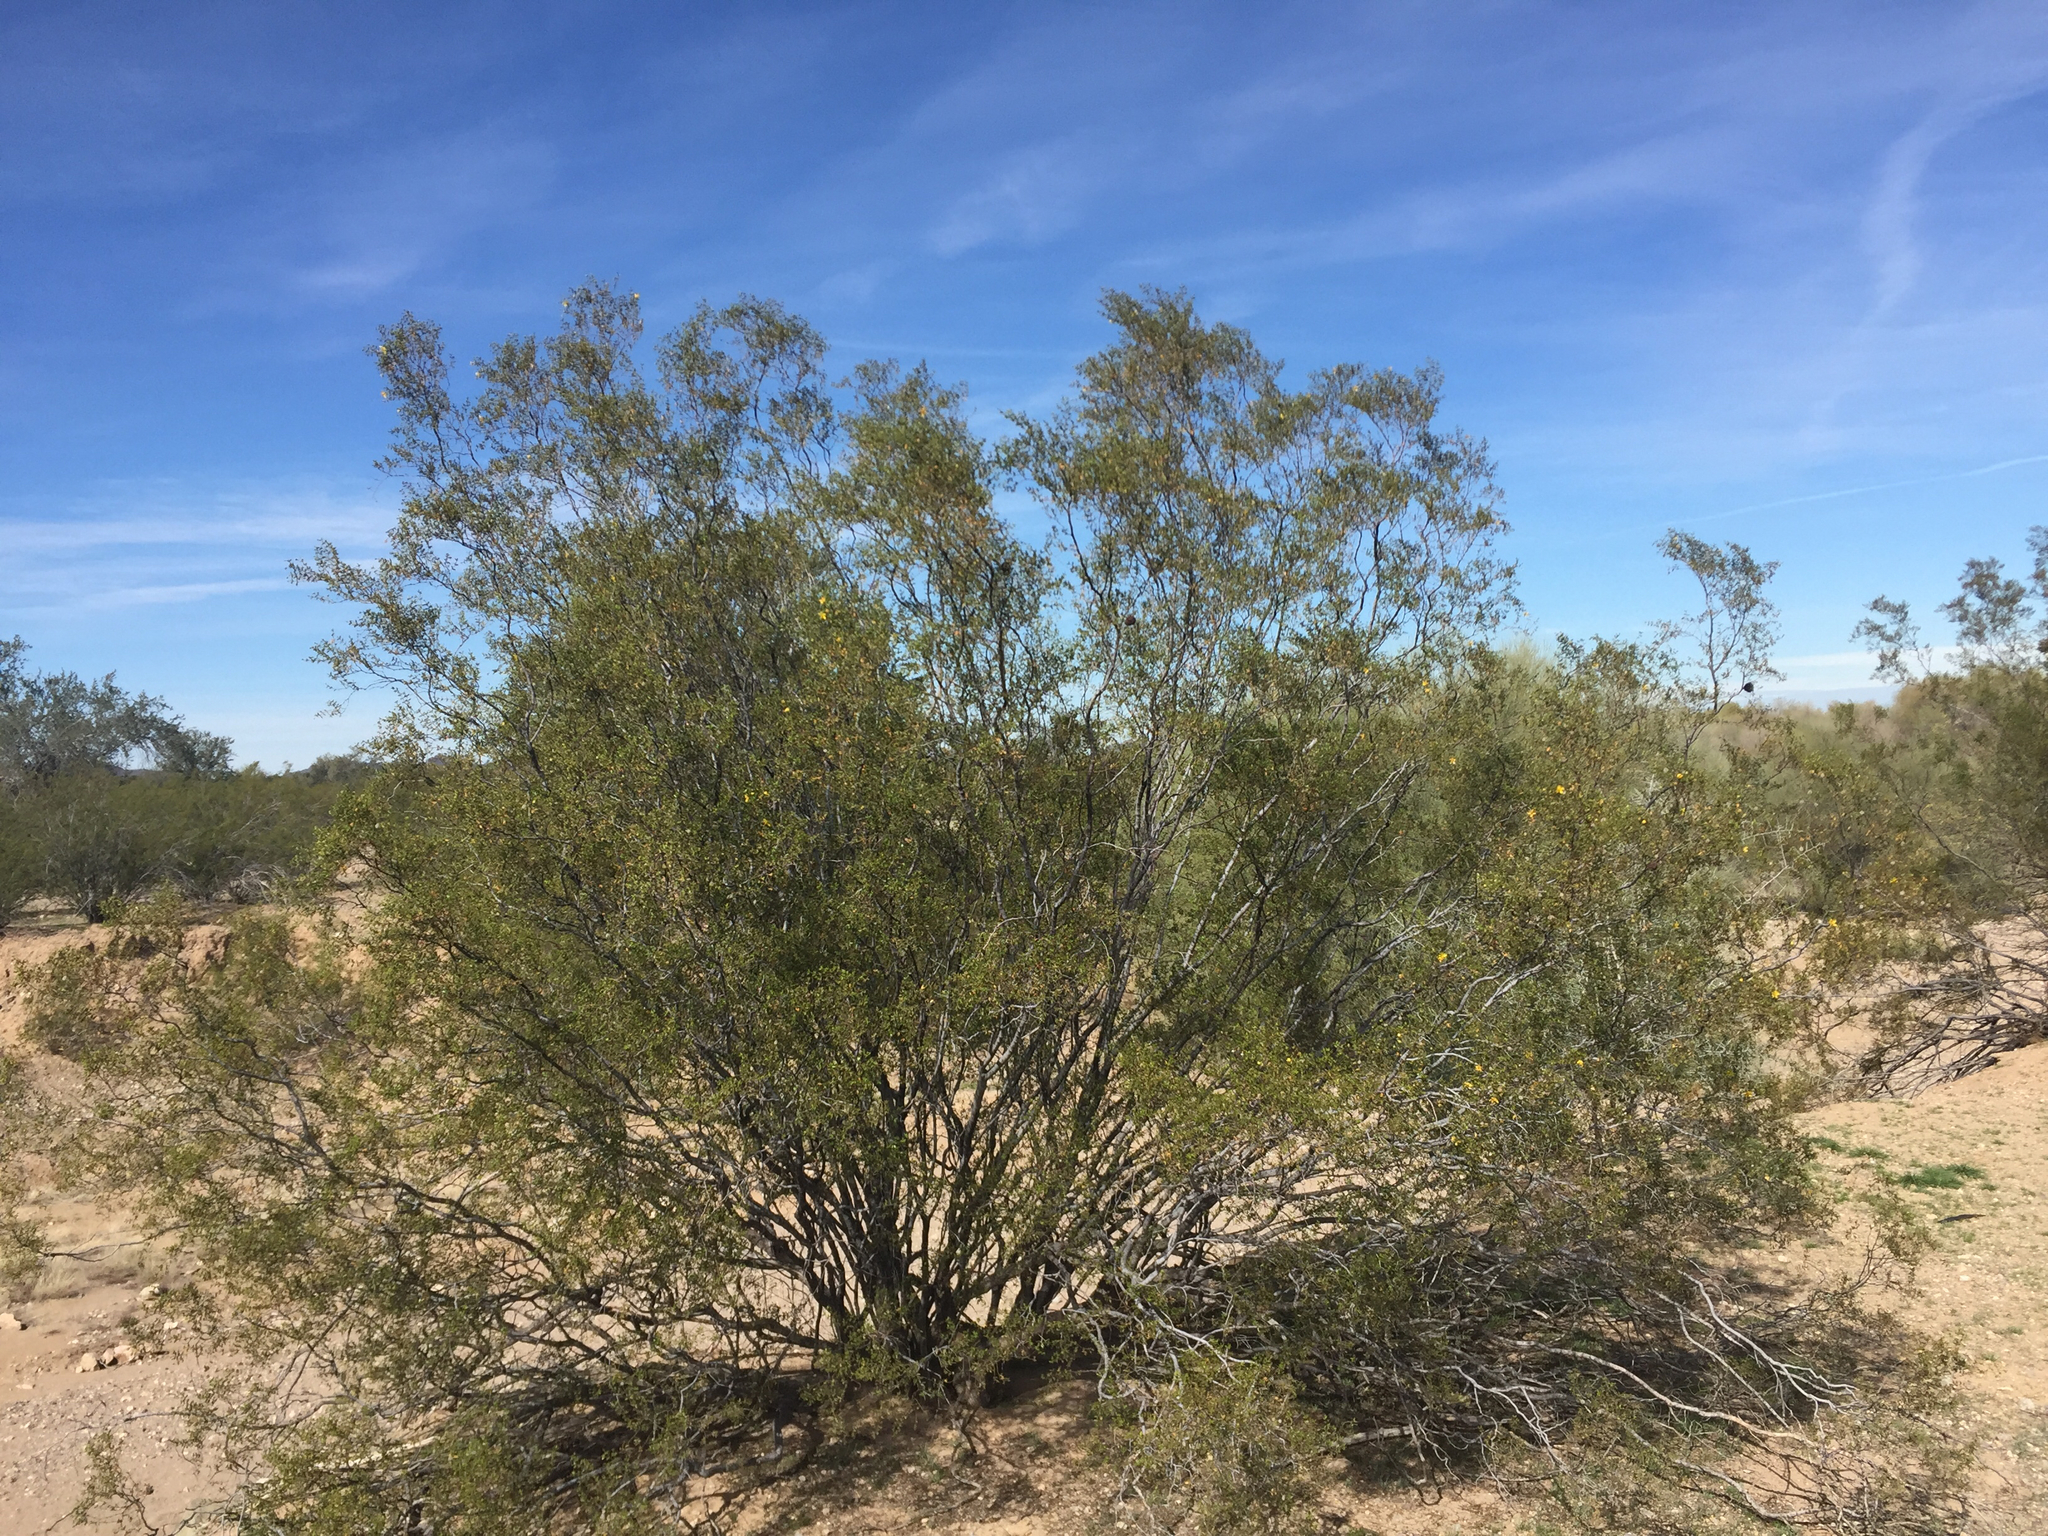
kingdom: Plantae
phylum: Tracheophyta
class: Magnoliopsida
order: Zygophyllales
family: Zygophyllaceae
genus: Larrea
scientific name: Larrea tridentata
